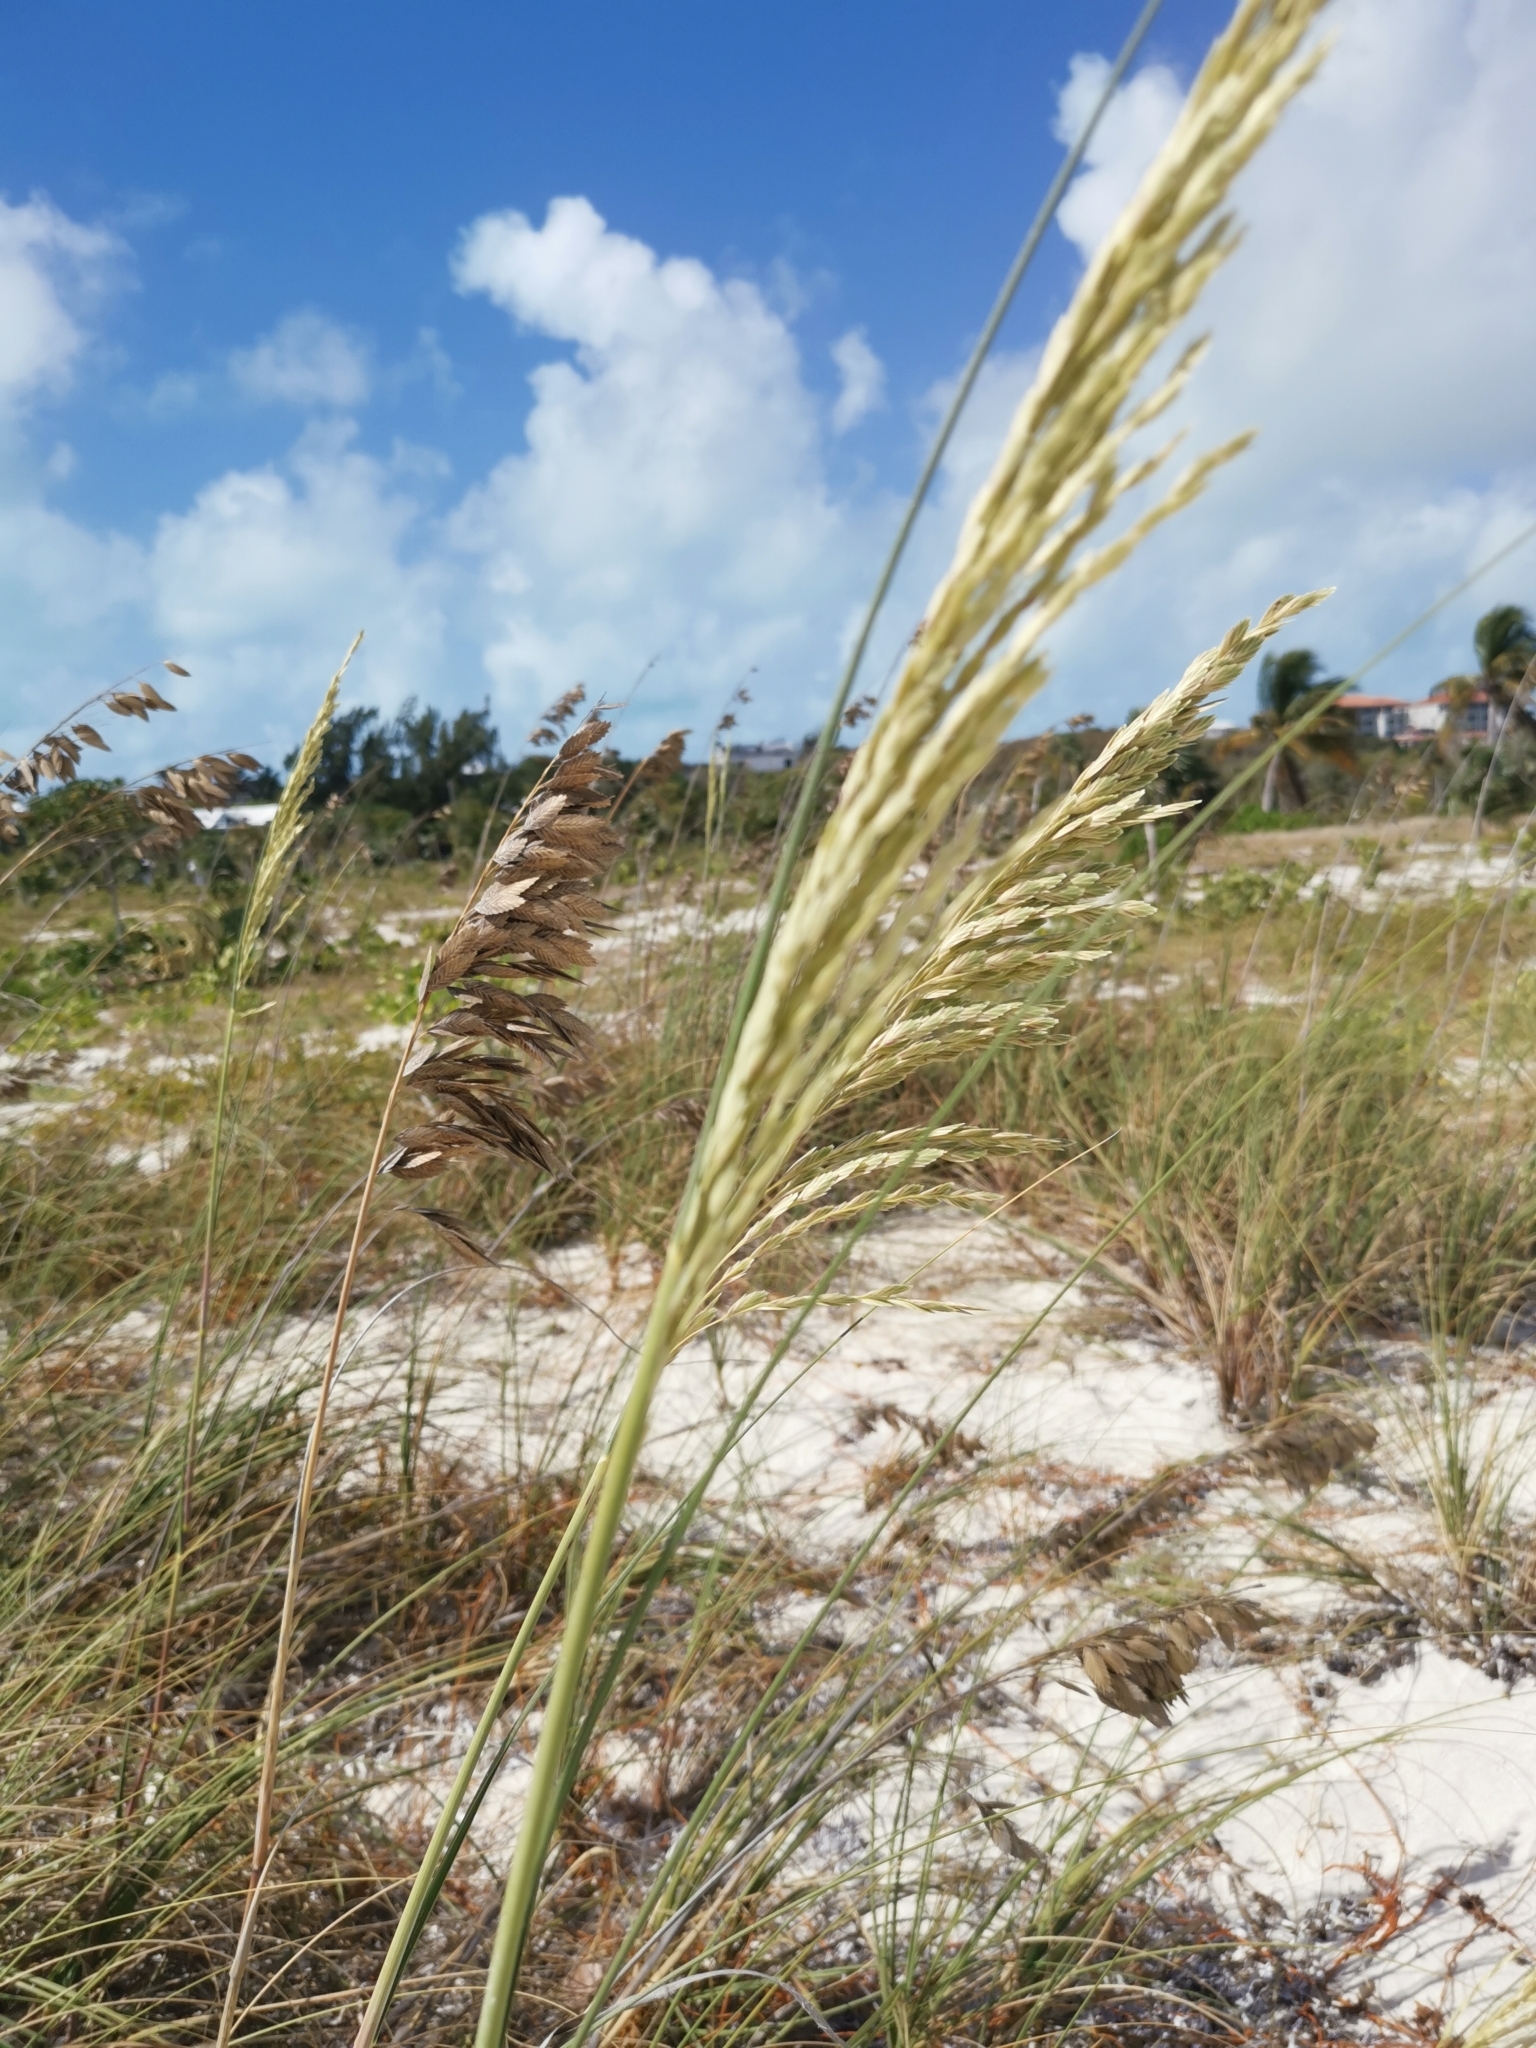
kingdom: Plantae
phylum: Tracheophyta
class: Liliopsida
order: Poales
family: Poaceae
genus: Uniola
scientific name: Uniola paniculata
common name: Seaside-oats
